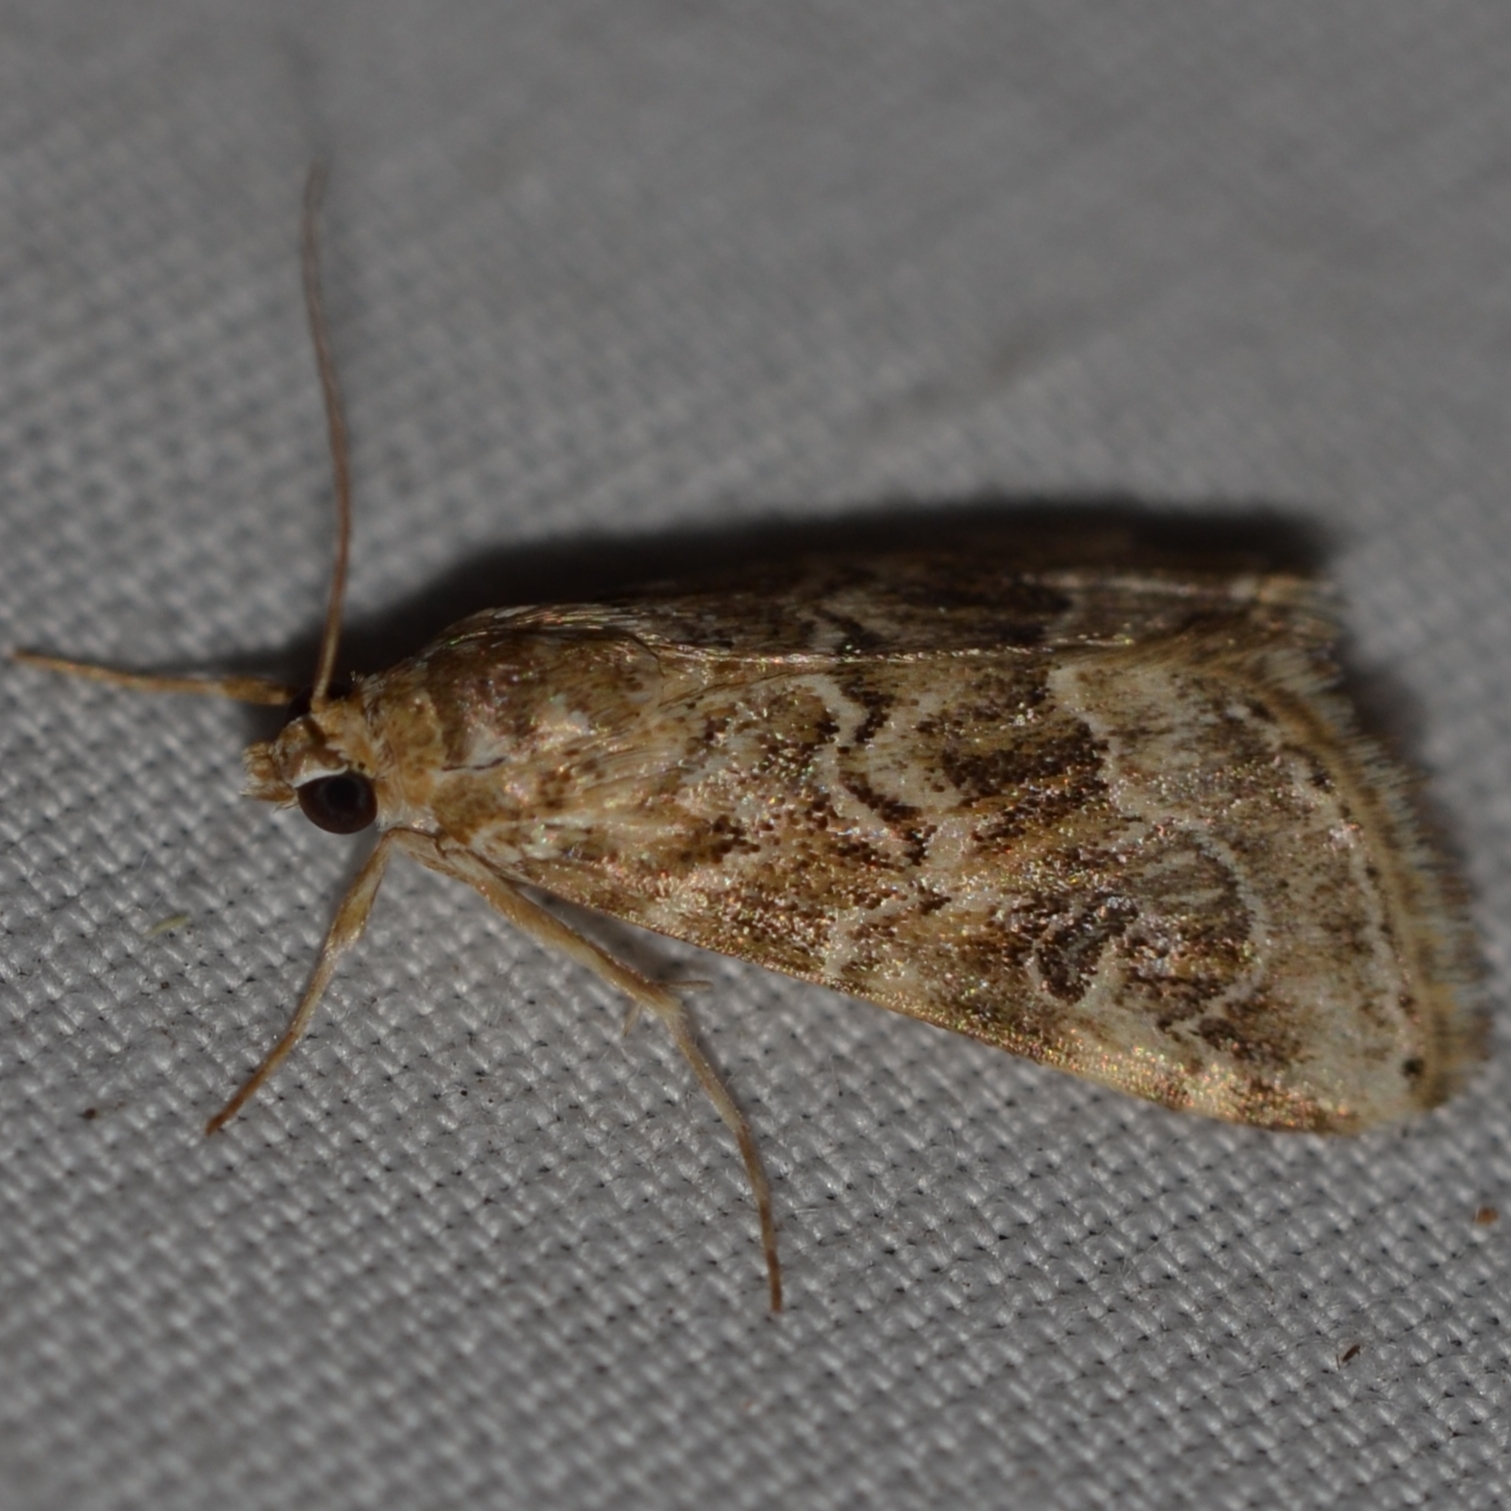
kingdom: Animalia
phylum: Arthropoda
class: Insecta
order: Lepidoptera
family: Crambidae
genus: Hellula
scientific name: Hellula undalis
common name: Cabbage webworm
